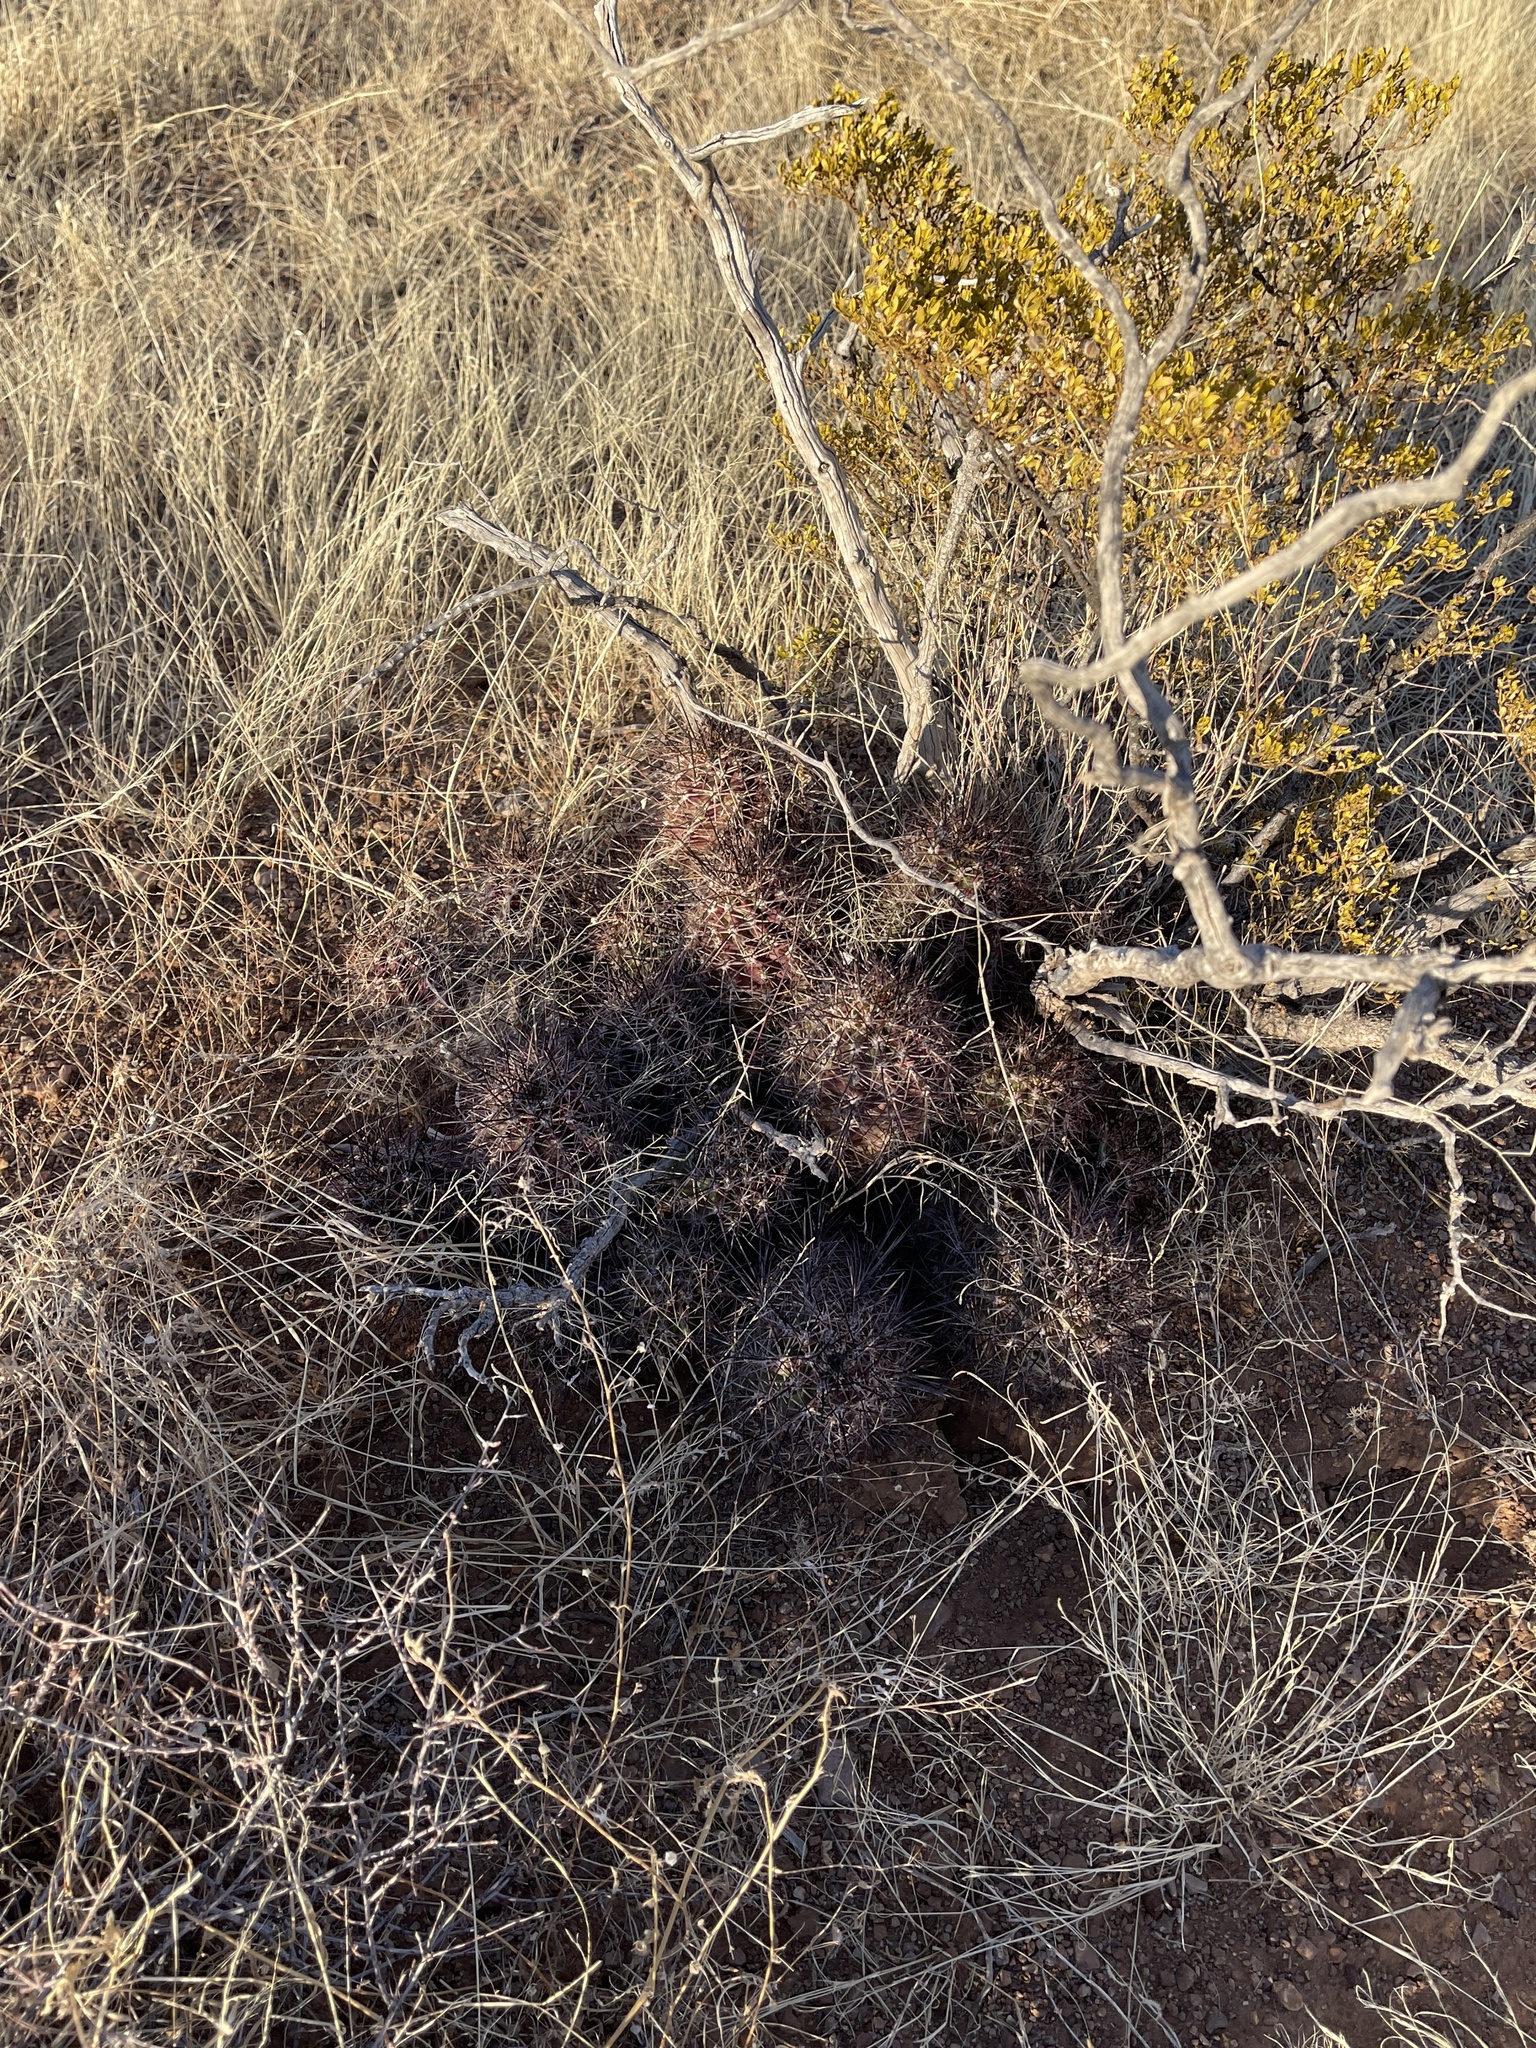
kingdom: Plantae
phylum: Tracheophyta
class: Magnoliopsida
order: Caryophyllales
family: Cactaceae
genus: Echinocereus
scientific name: Echinocereus coccineus
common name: Scarlet hedgehog cactus
